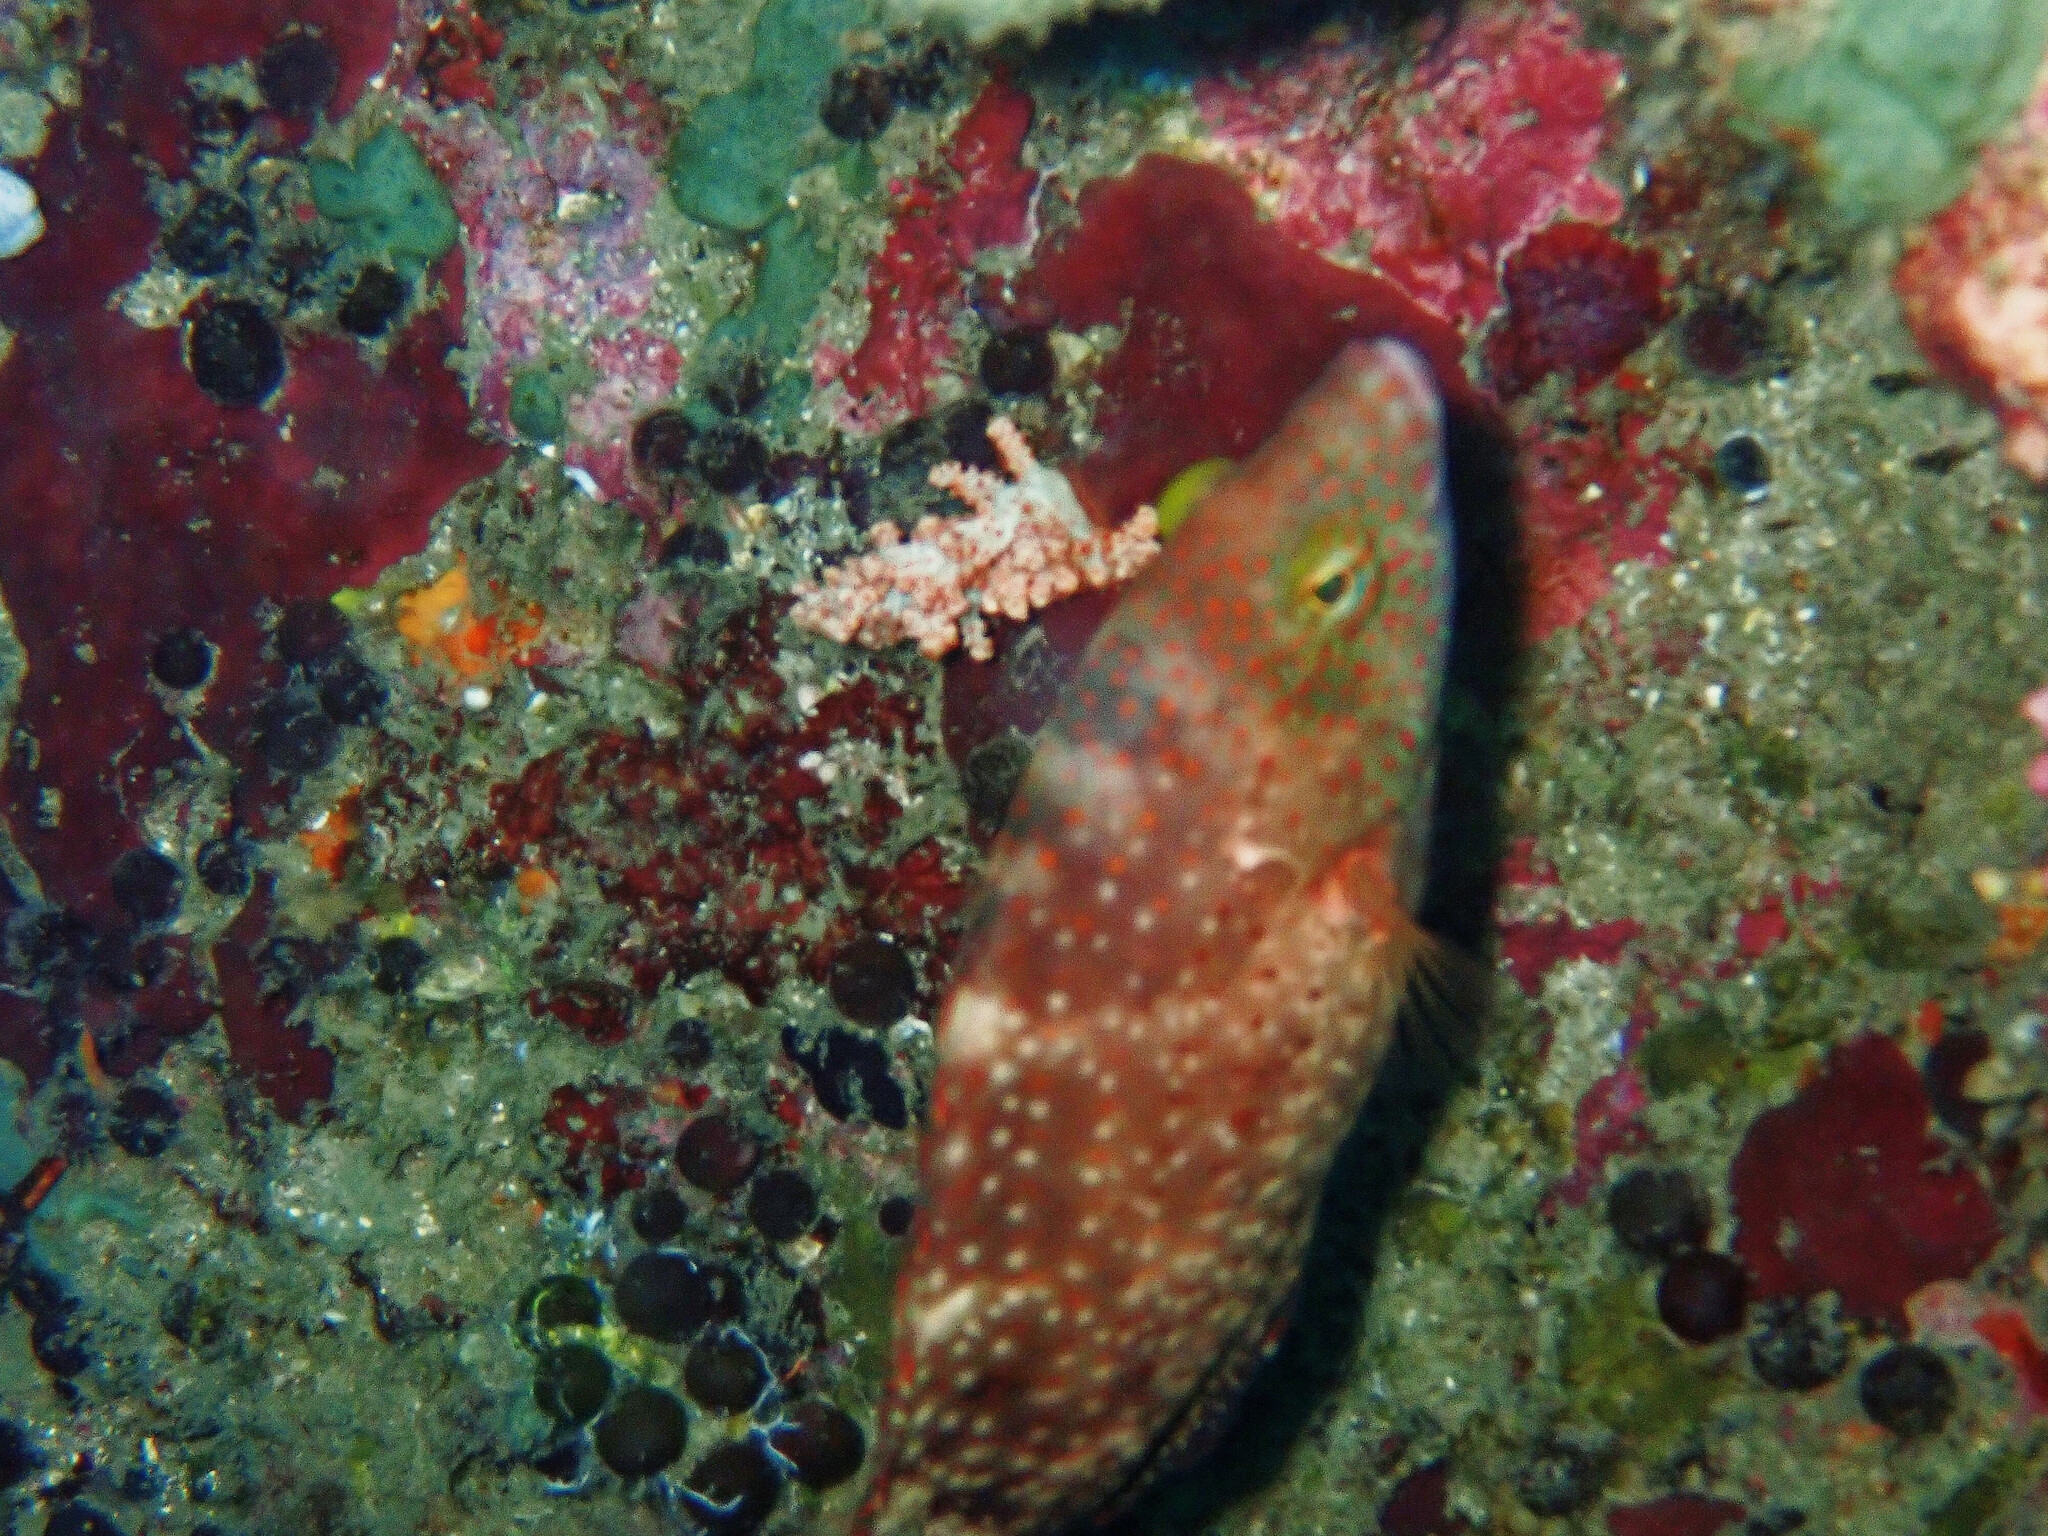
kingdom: Animalia
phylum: Chordata
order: Perciformes
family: Labridae
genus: Cheilinus
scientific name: Cheilinus chlorourus
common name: Floral wrasse
